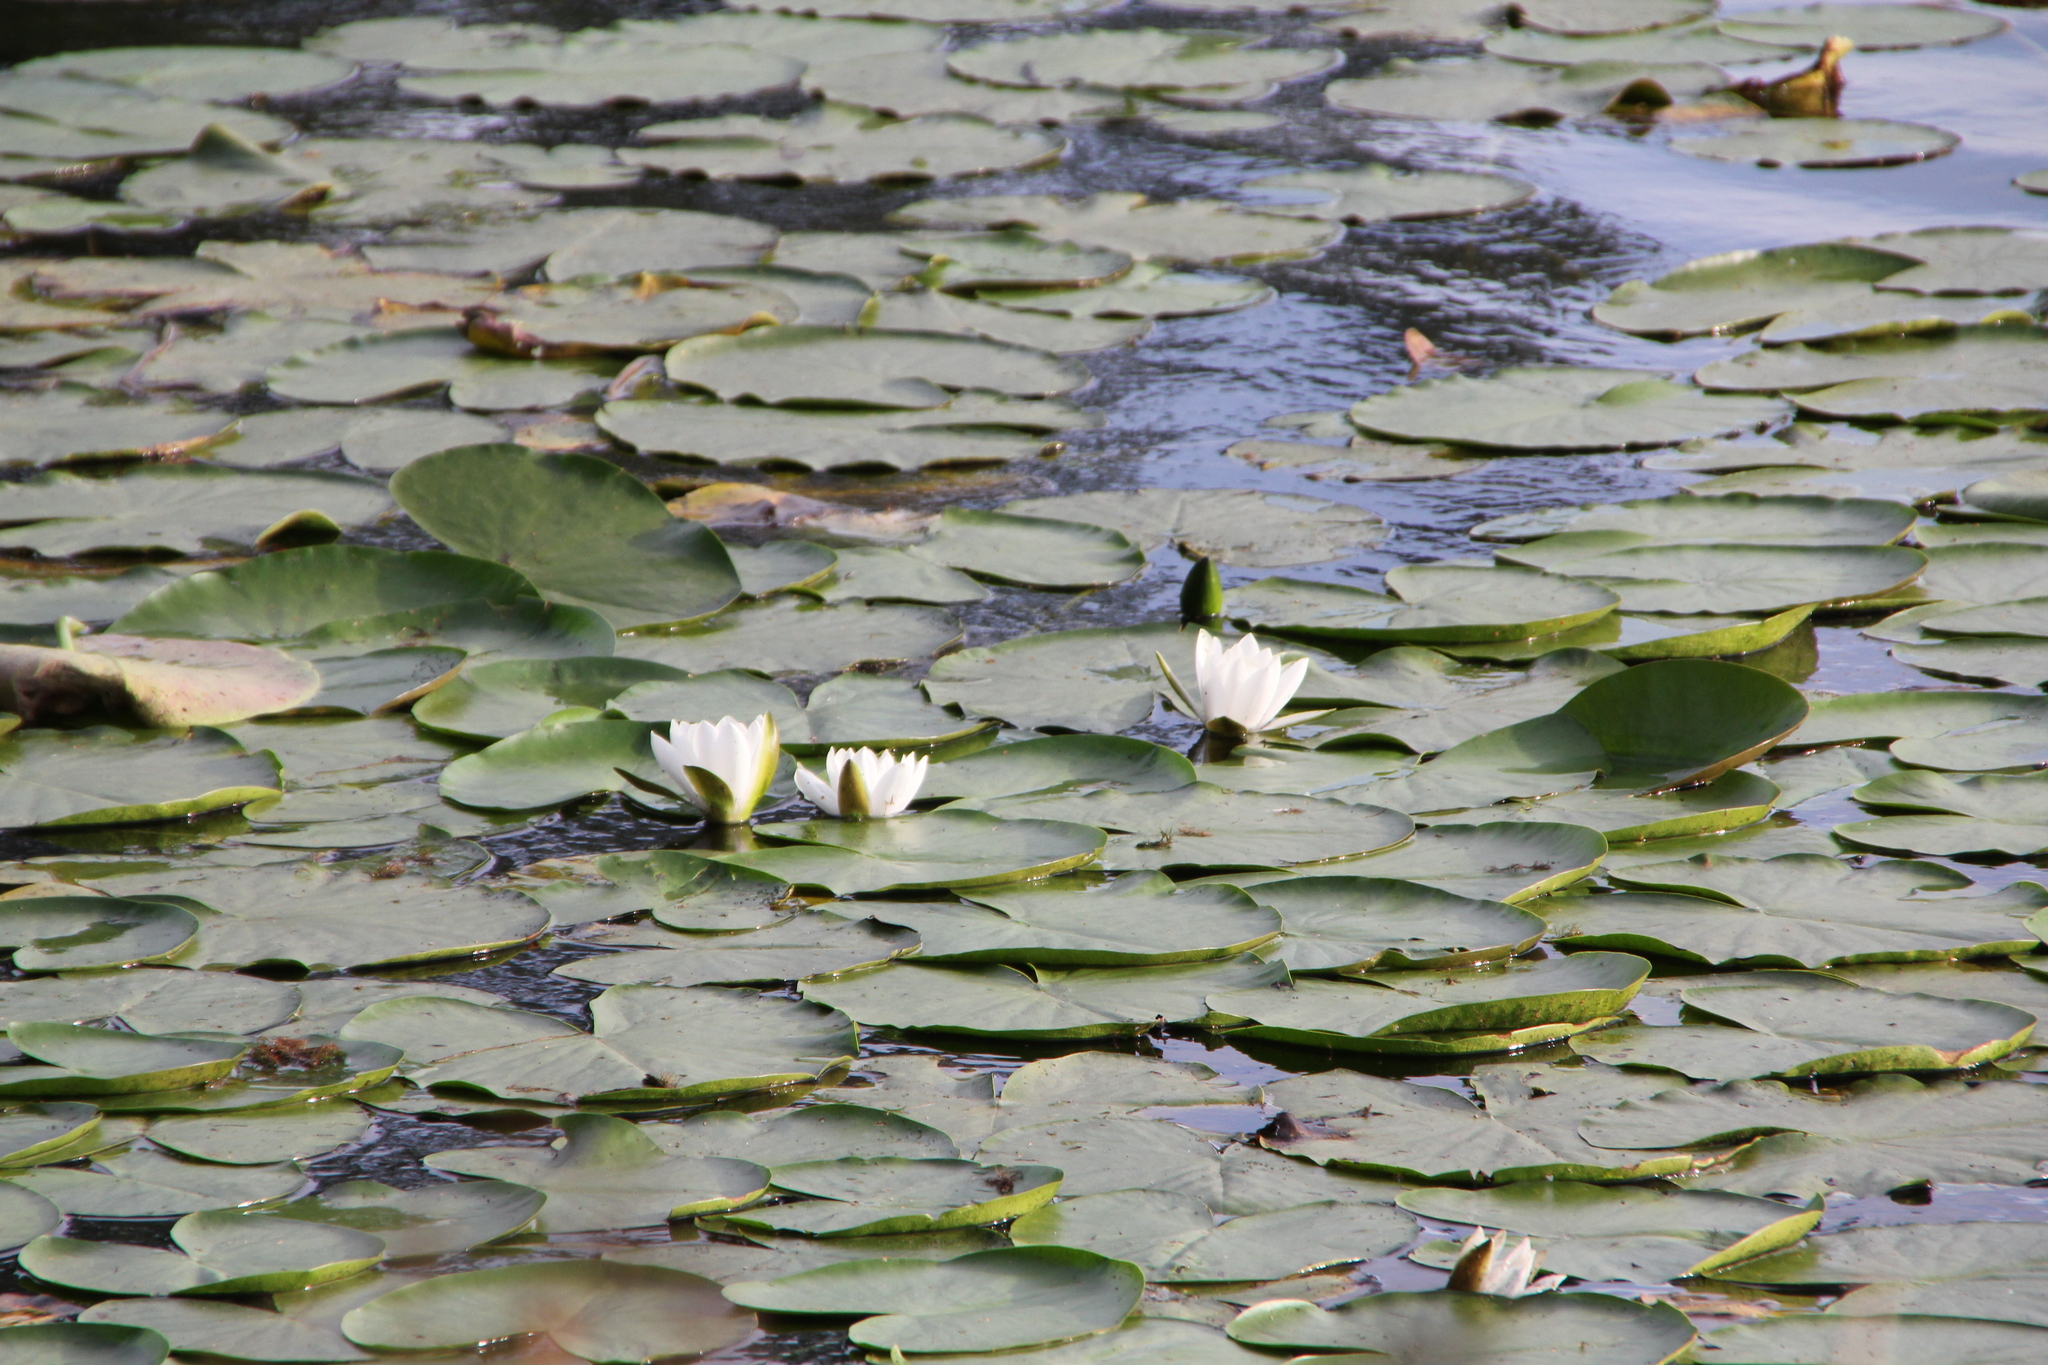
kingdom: Plantae
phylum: Tracheophyta
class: Magnoliopsida
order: Nymphaeales
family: Nymphaeaceae
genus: Nymphaea
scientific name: Nymphaea alba
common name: White water-lily
